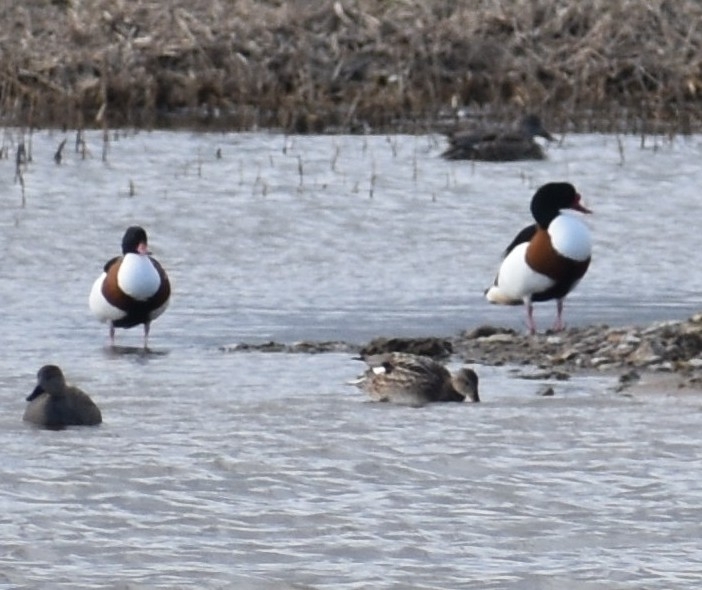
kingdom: Animalia
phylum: Chordata
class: Aves
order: Anseriformes
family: Anatidae
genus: Tadorna
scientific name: Tadorna tadorna
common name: Common shelduck
